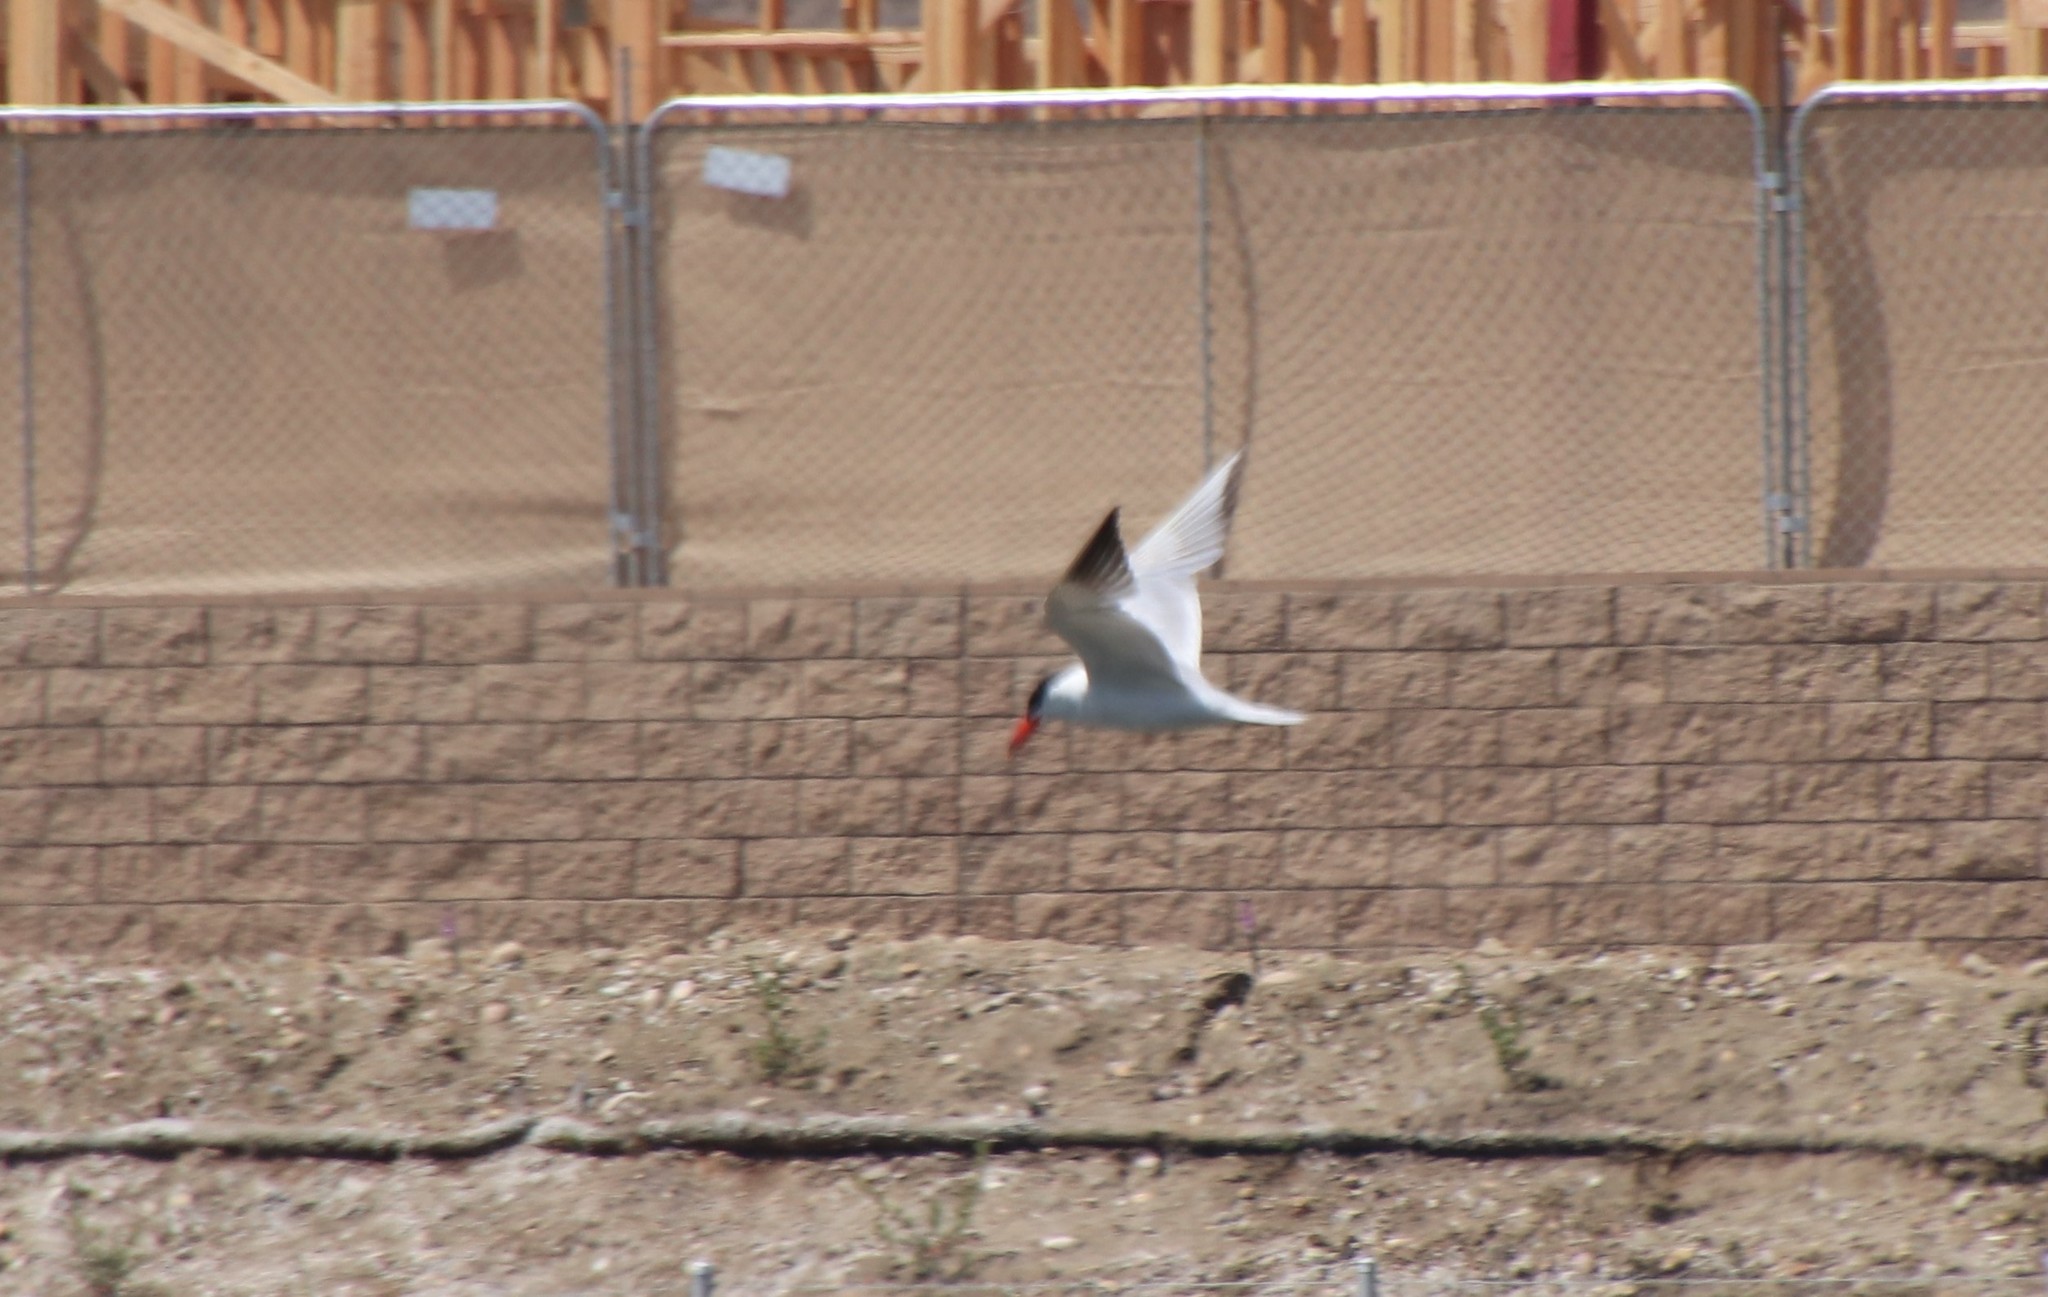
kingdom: Animalia
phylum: Chordata
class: Aves
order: Charadriiformes
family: Laridae
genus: Hydroprogne
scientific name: Hydroprogne caspia
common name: Caspian tern
